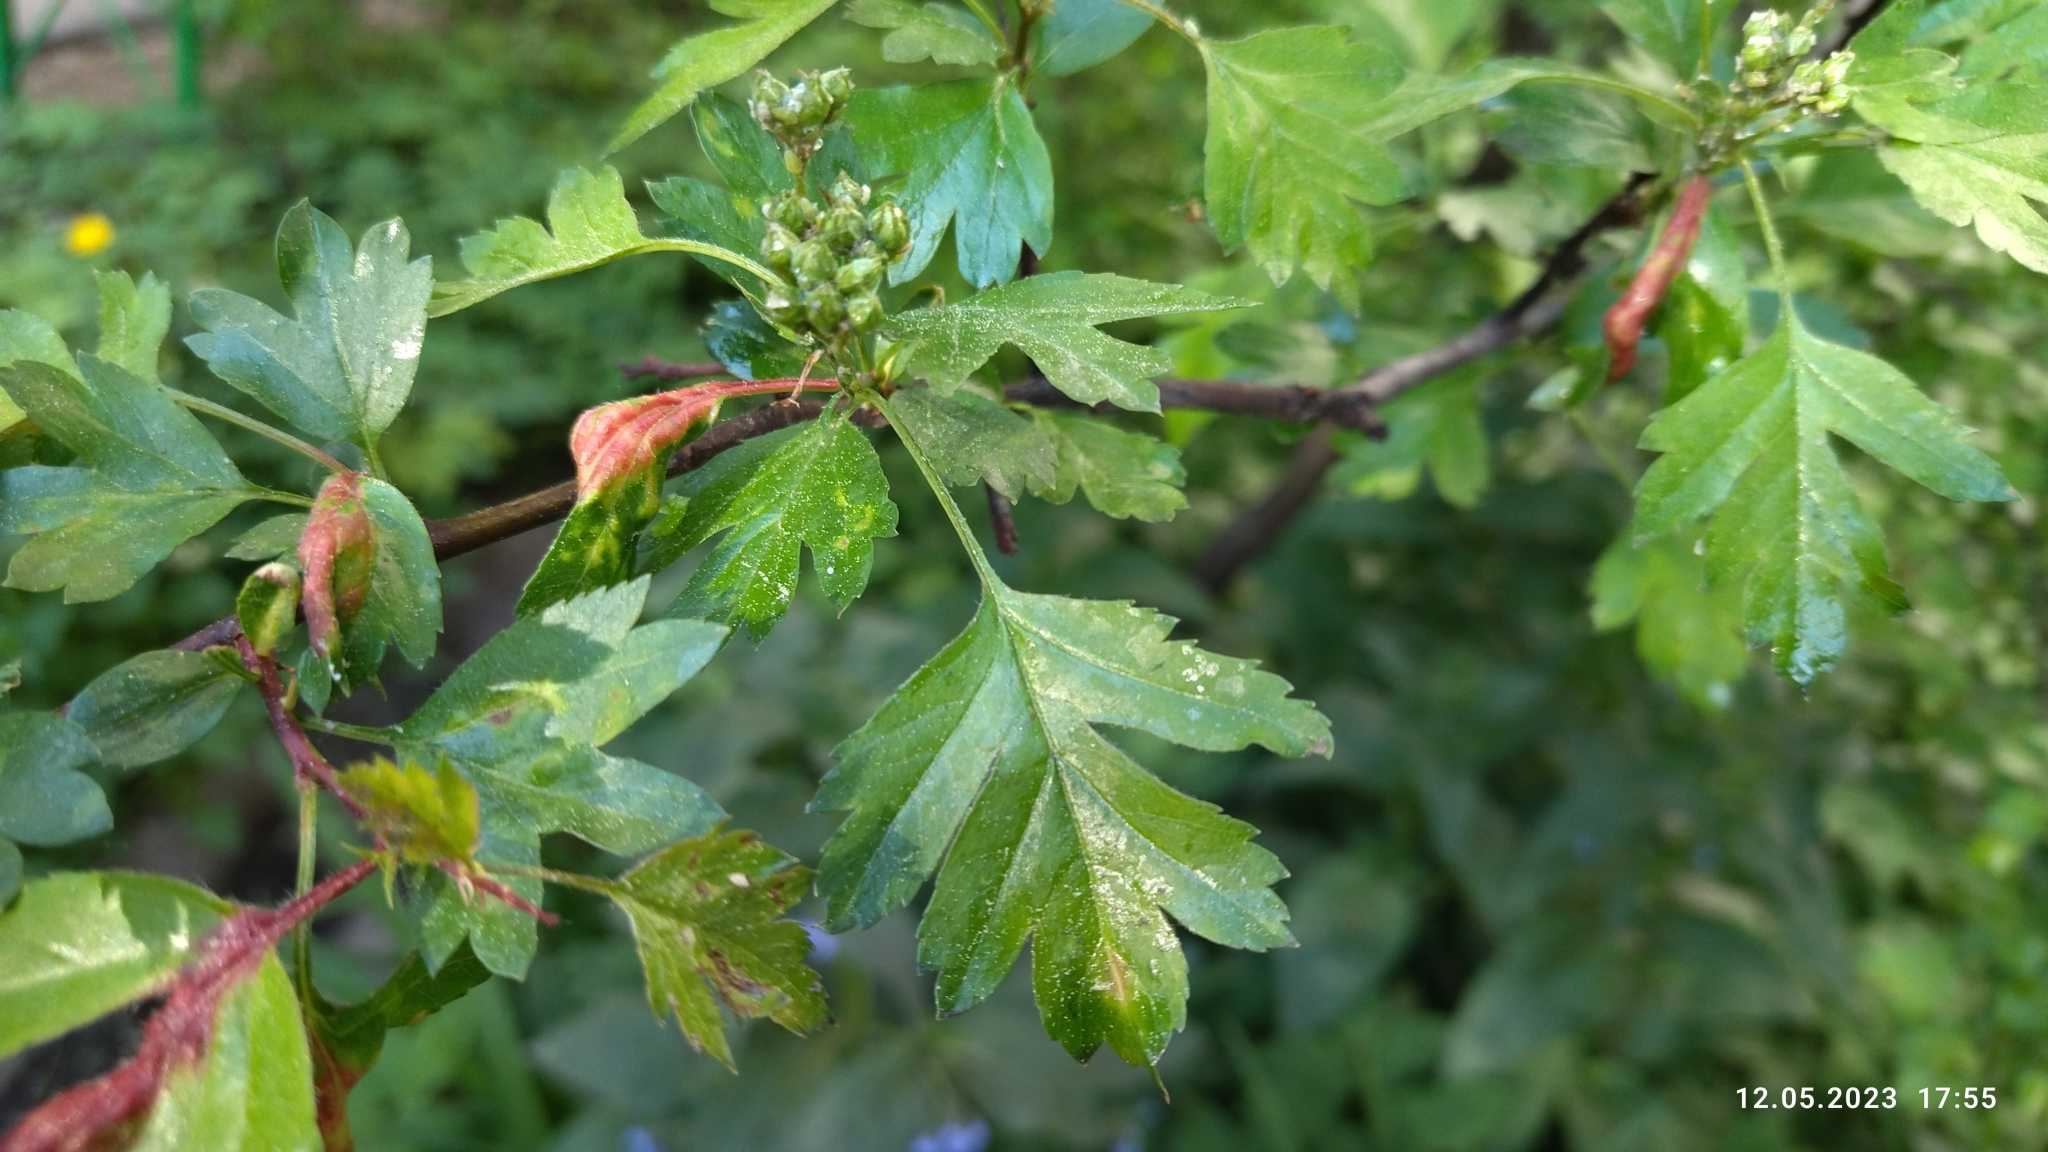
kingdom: Plantae
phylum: Tracheophyta
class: Magnoliopsida
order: Rosales
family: Rosaceae
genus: Crataegus
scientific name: Crataegus monogyna
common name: Hawthorn
